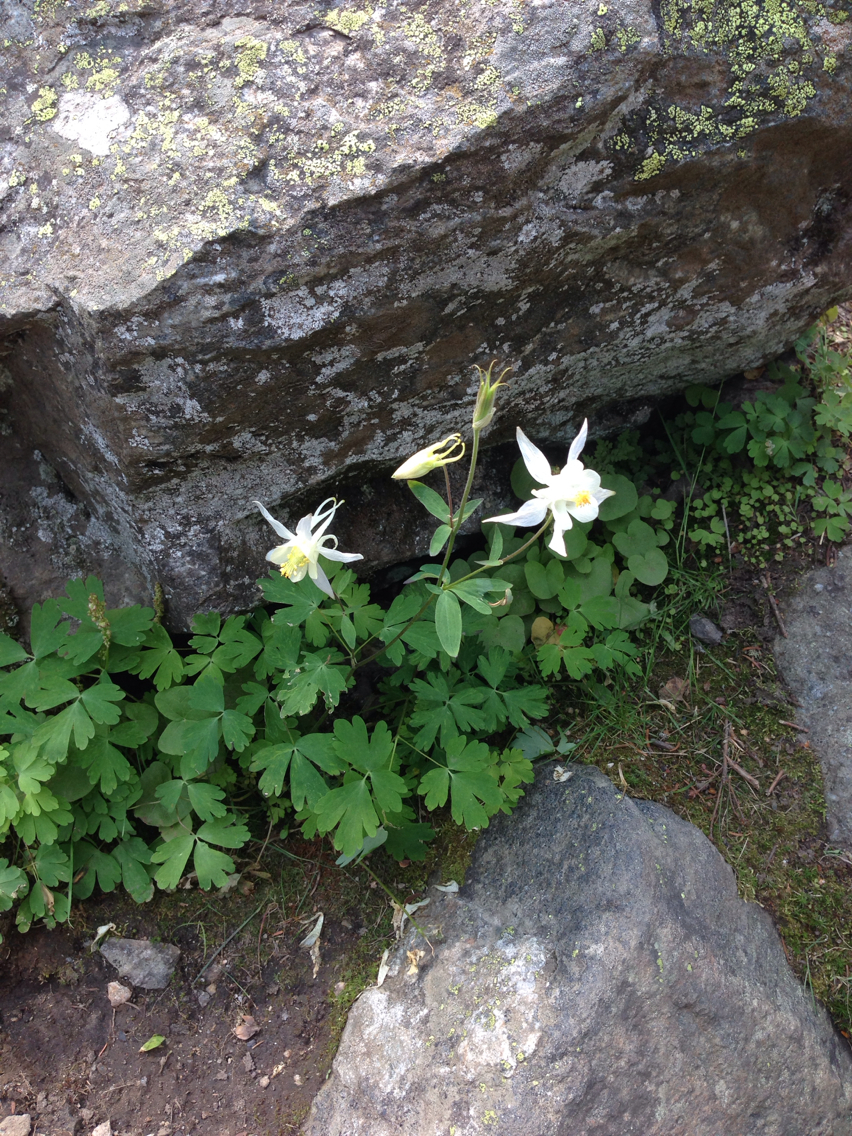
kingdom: Plantae
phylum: Tracheophyta
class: Magnoliopsida
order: Ranunculales
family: Ranunculaceae
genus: Aquilegia
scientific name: Aquilegia coerulea
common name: Rocky mountain columbine
